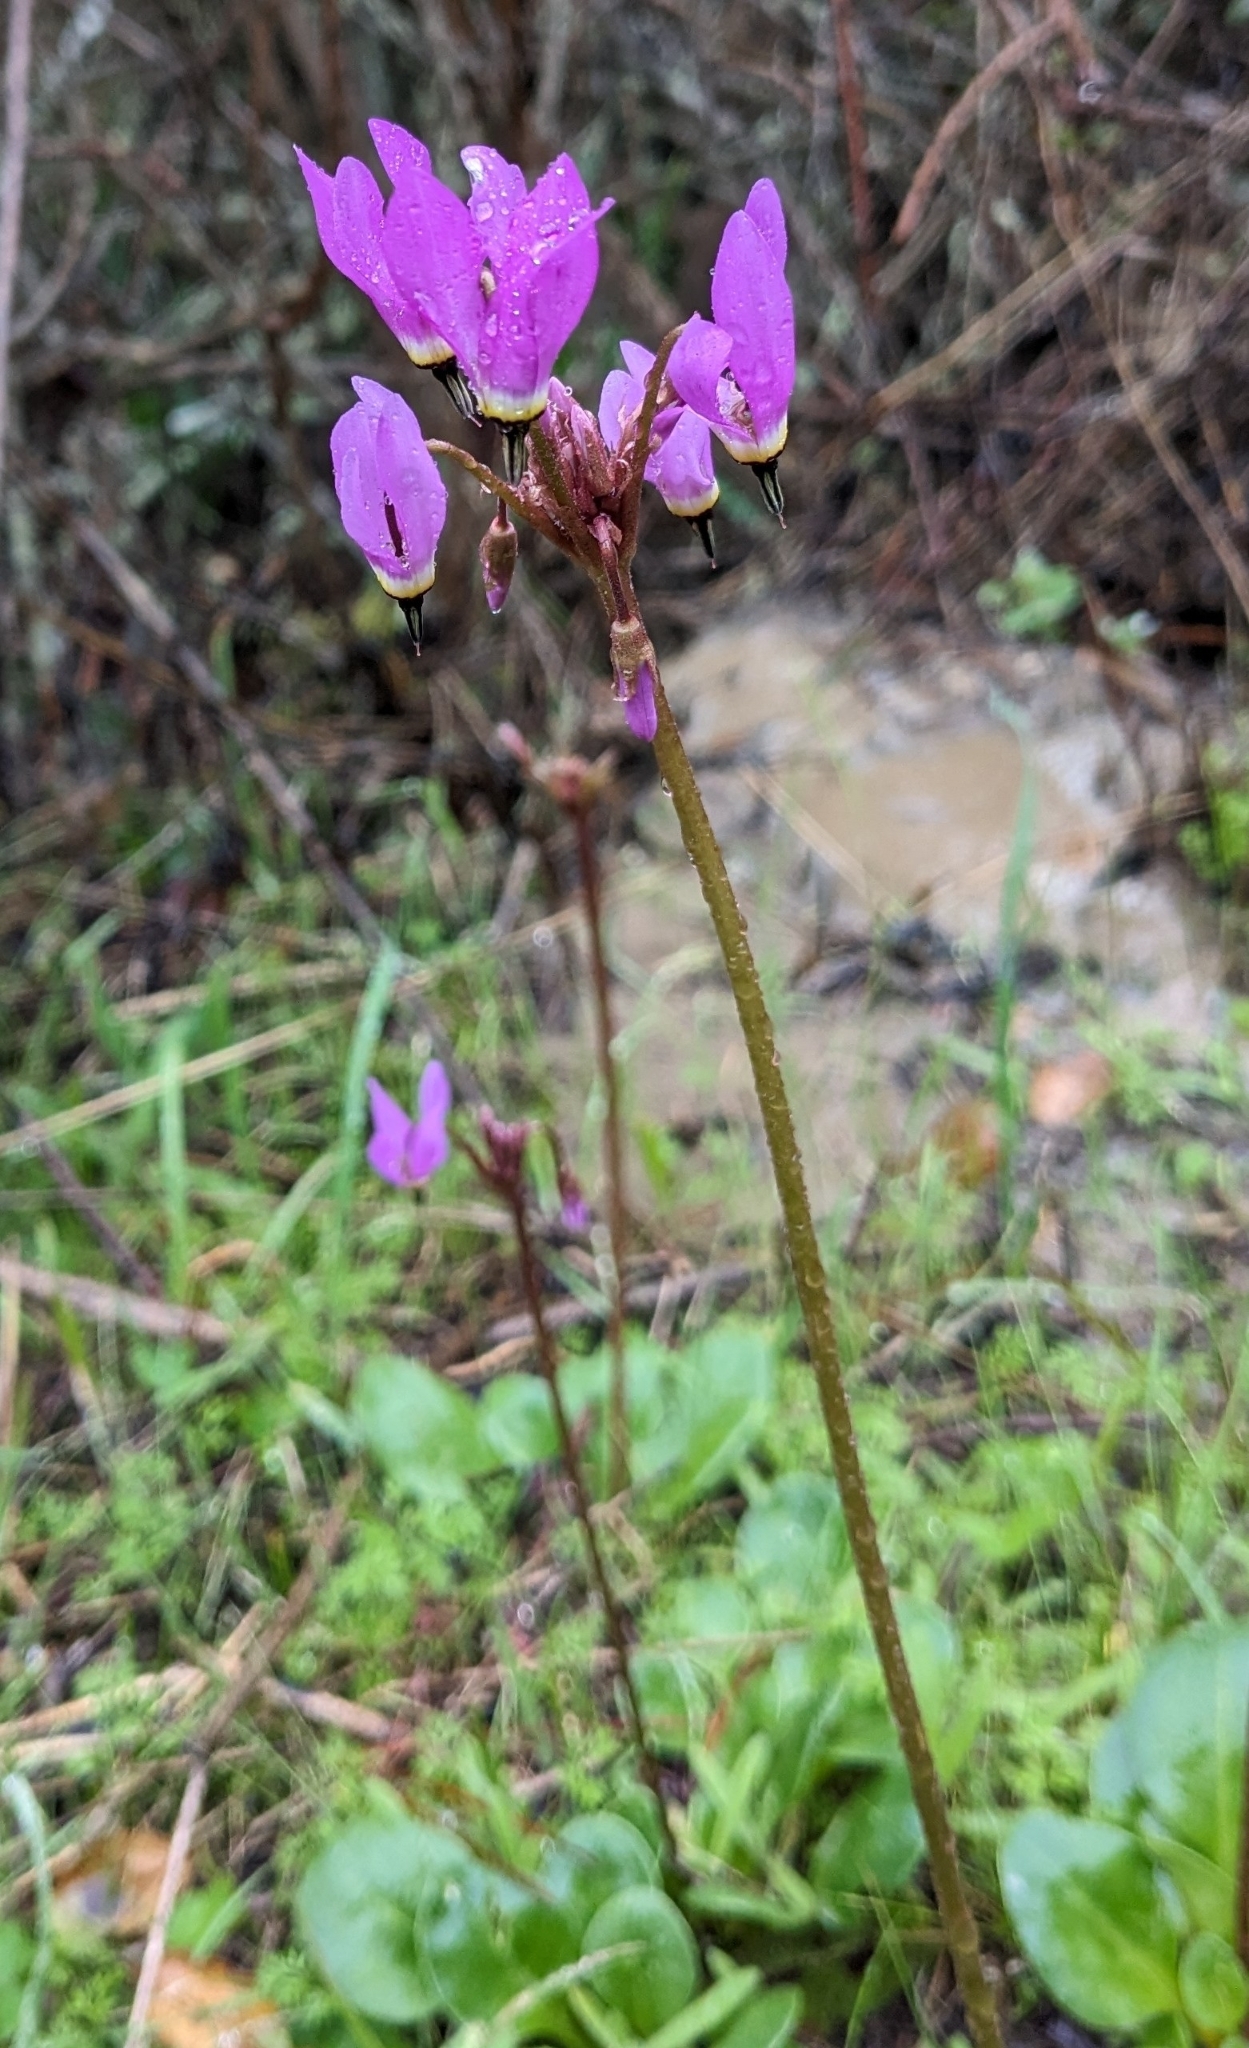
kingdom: Plantae
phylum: Tracheophyta
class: Magnoliopsida
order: Ericales
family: Primulaceae
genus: Dodecatheon
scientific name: Dodecatheon hendersonii
